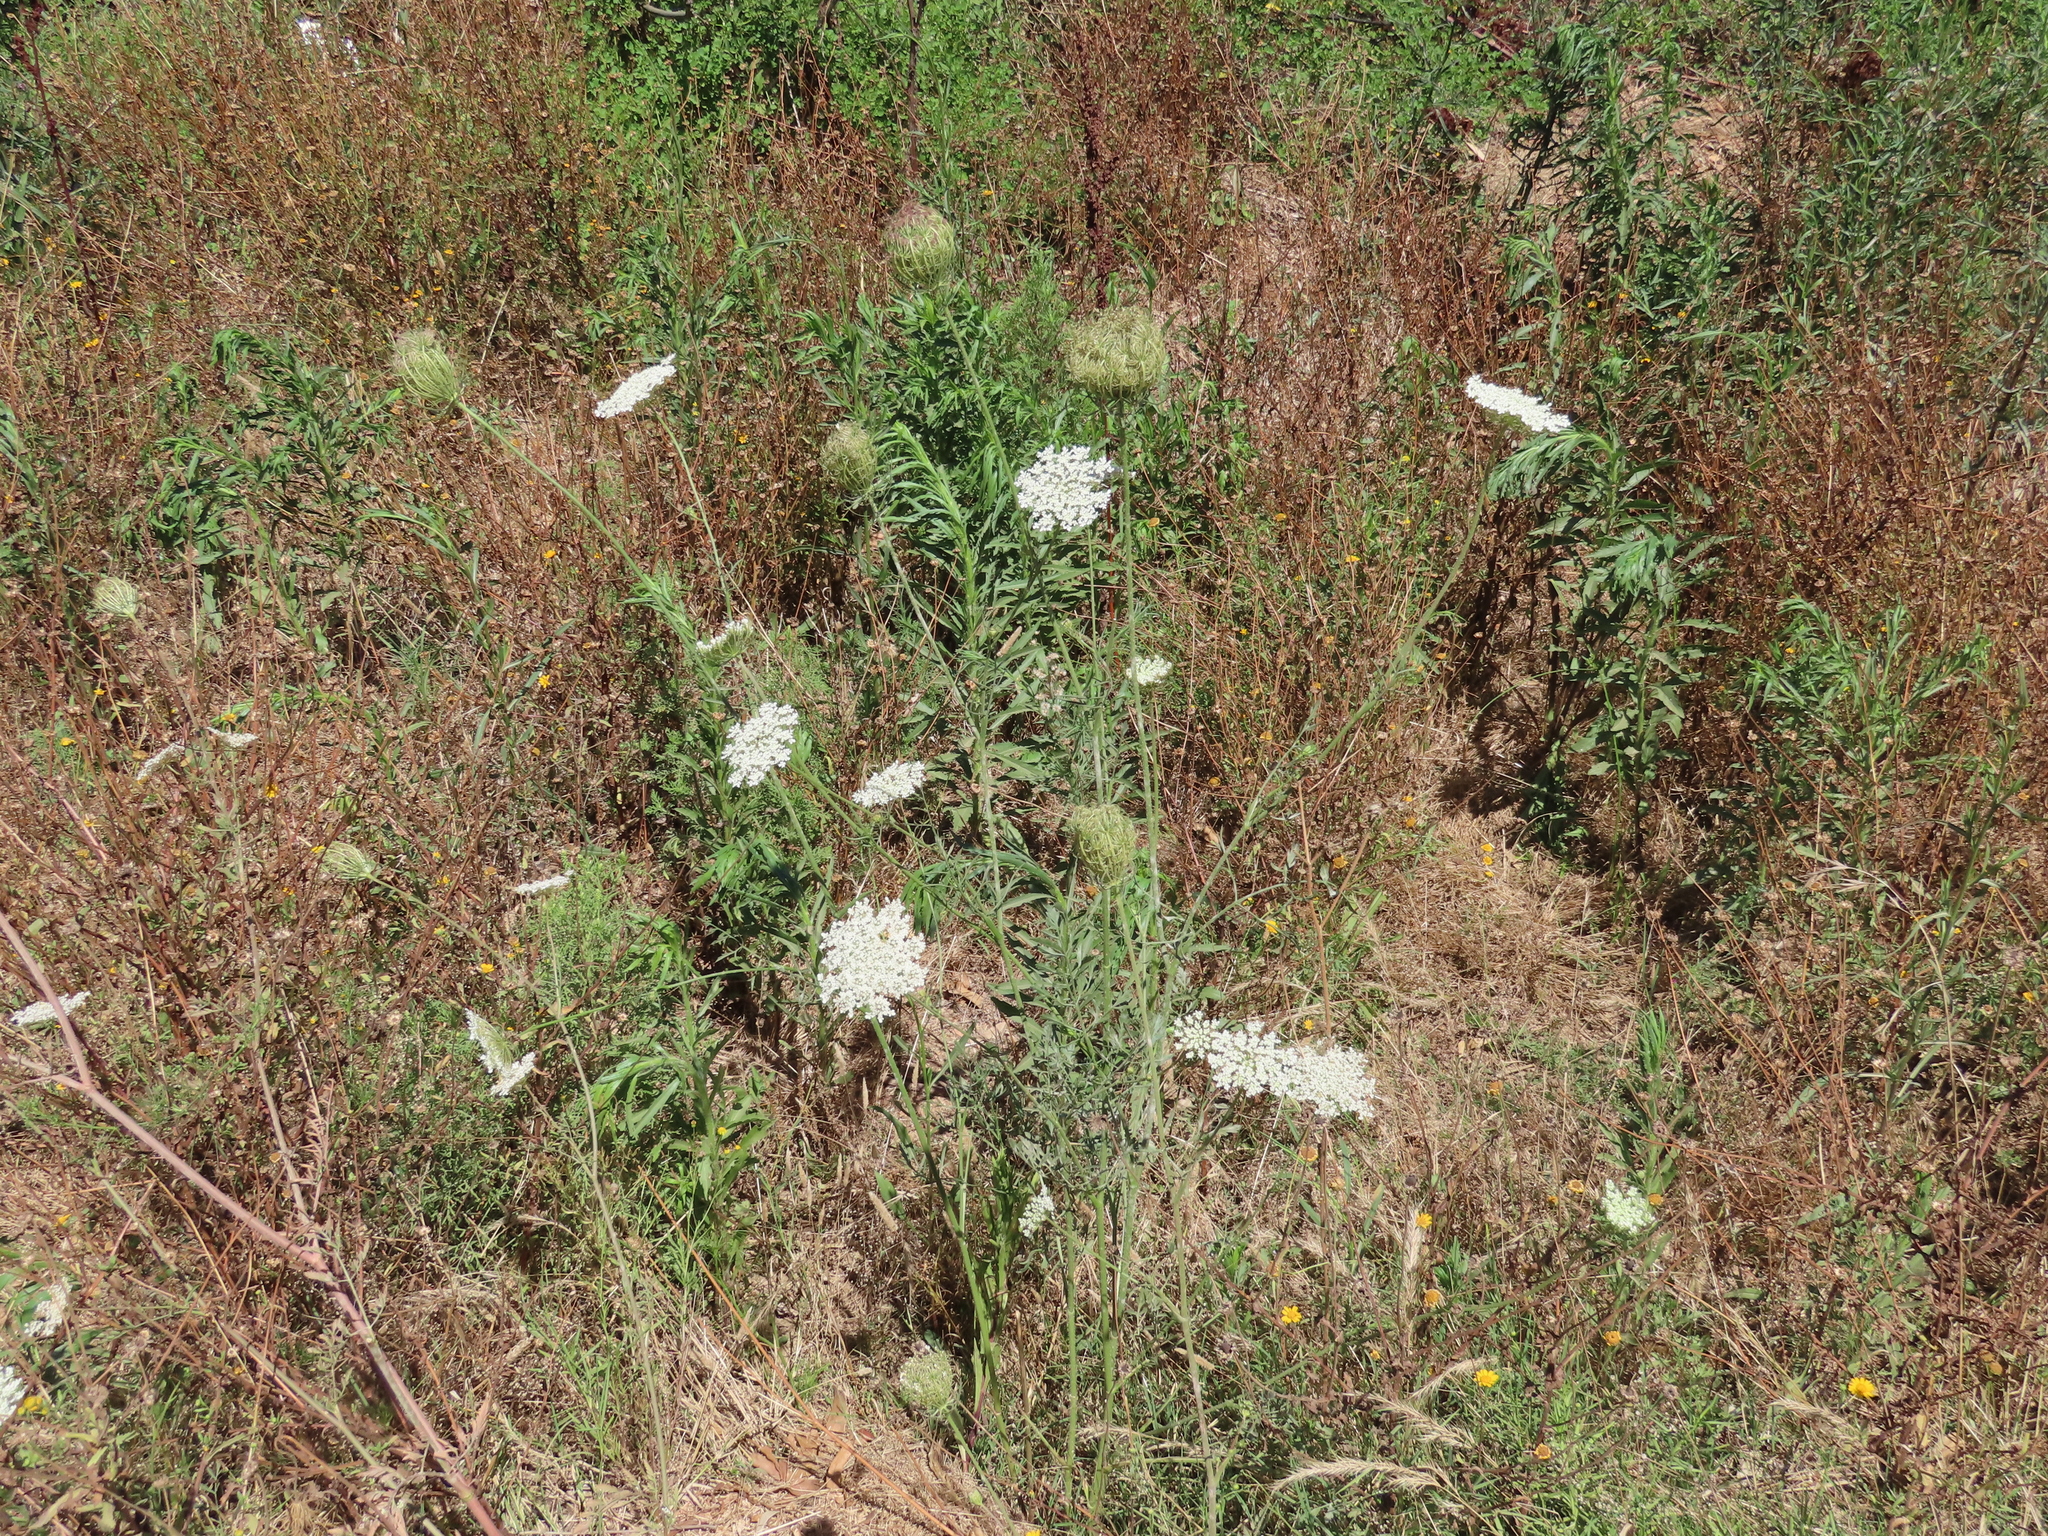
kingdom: Plantae
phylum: Tracheophyta
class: Magnoliopsida
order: Apiales
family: Apiaceae
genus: Daucus
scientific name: Daucus carota
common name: Wild carrot
